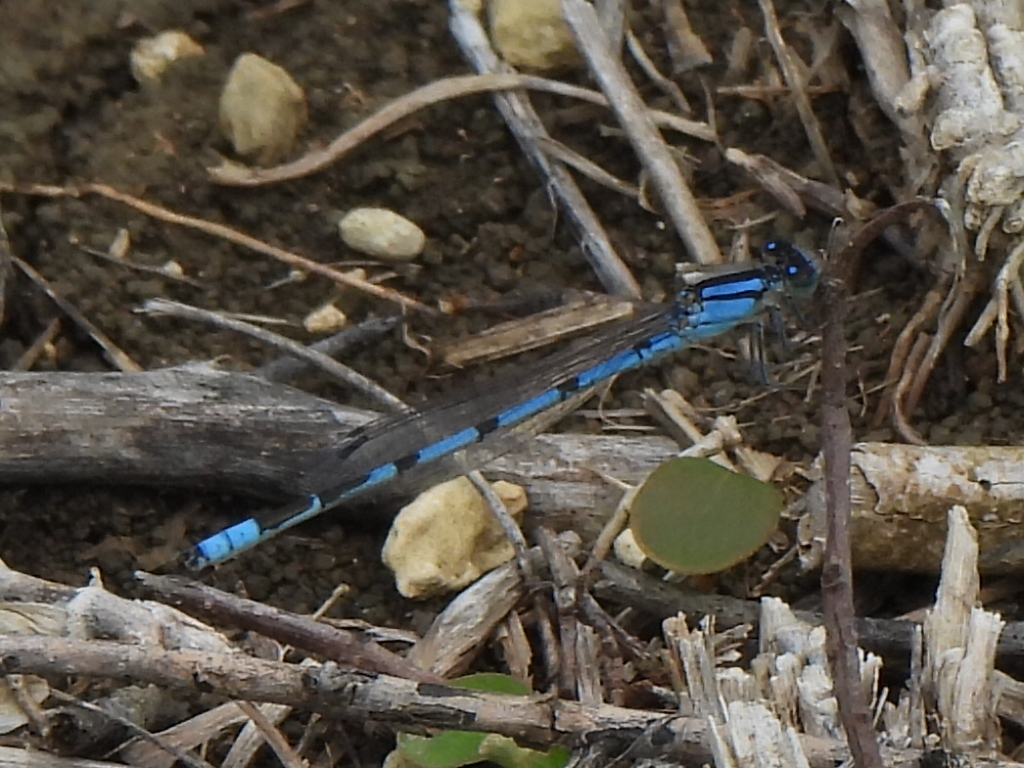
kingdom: Animalia
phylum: Arthropoda
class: Insecta
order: Odonata
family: Coenagrionidae
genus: Enallagma
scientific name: Enallagma civile
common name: Damselfly
